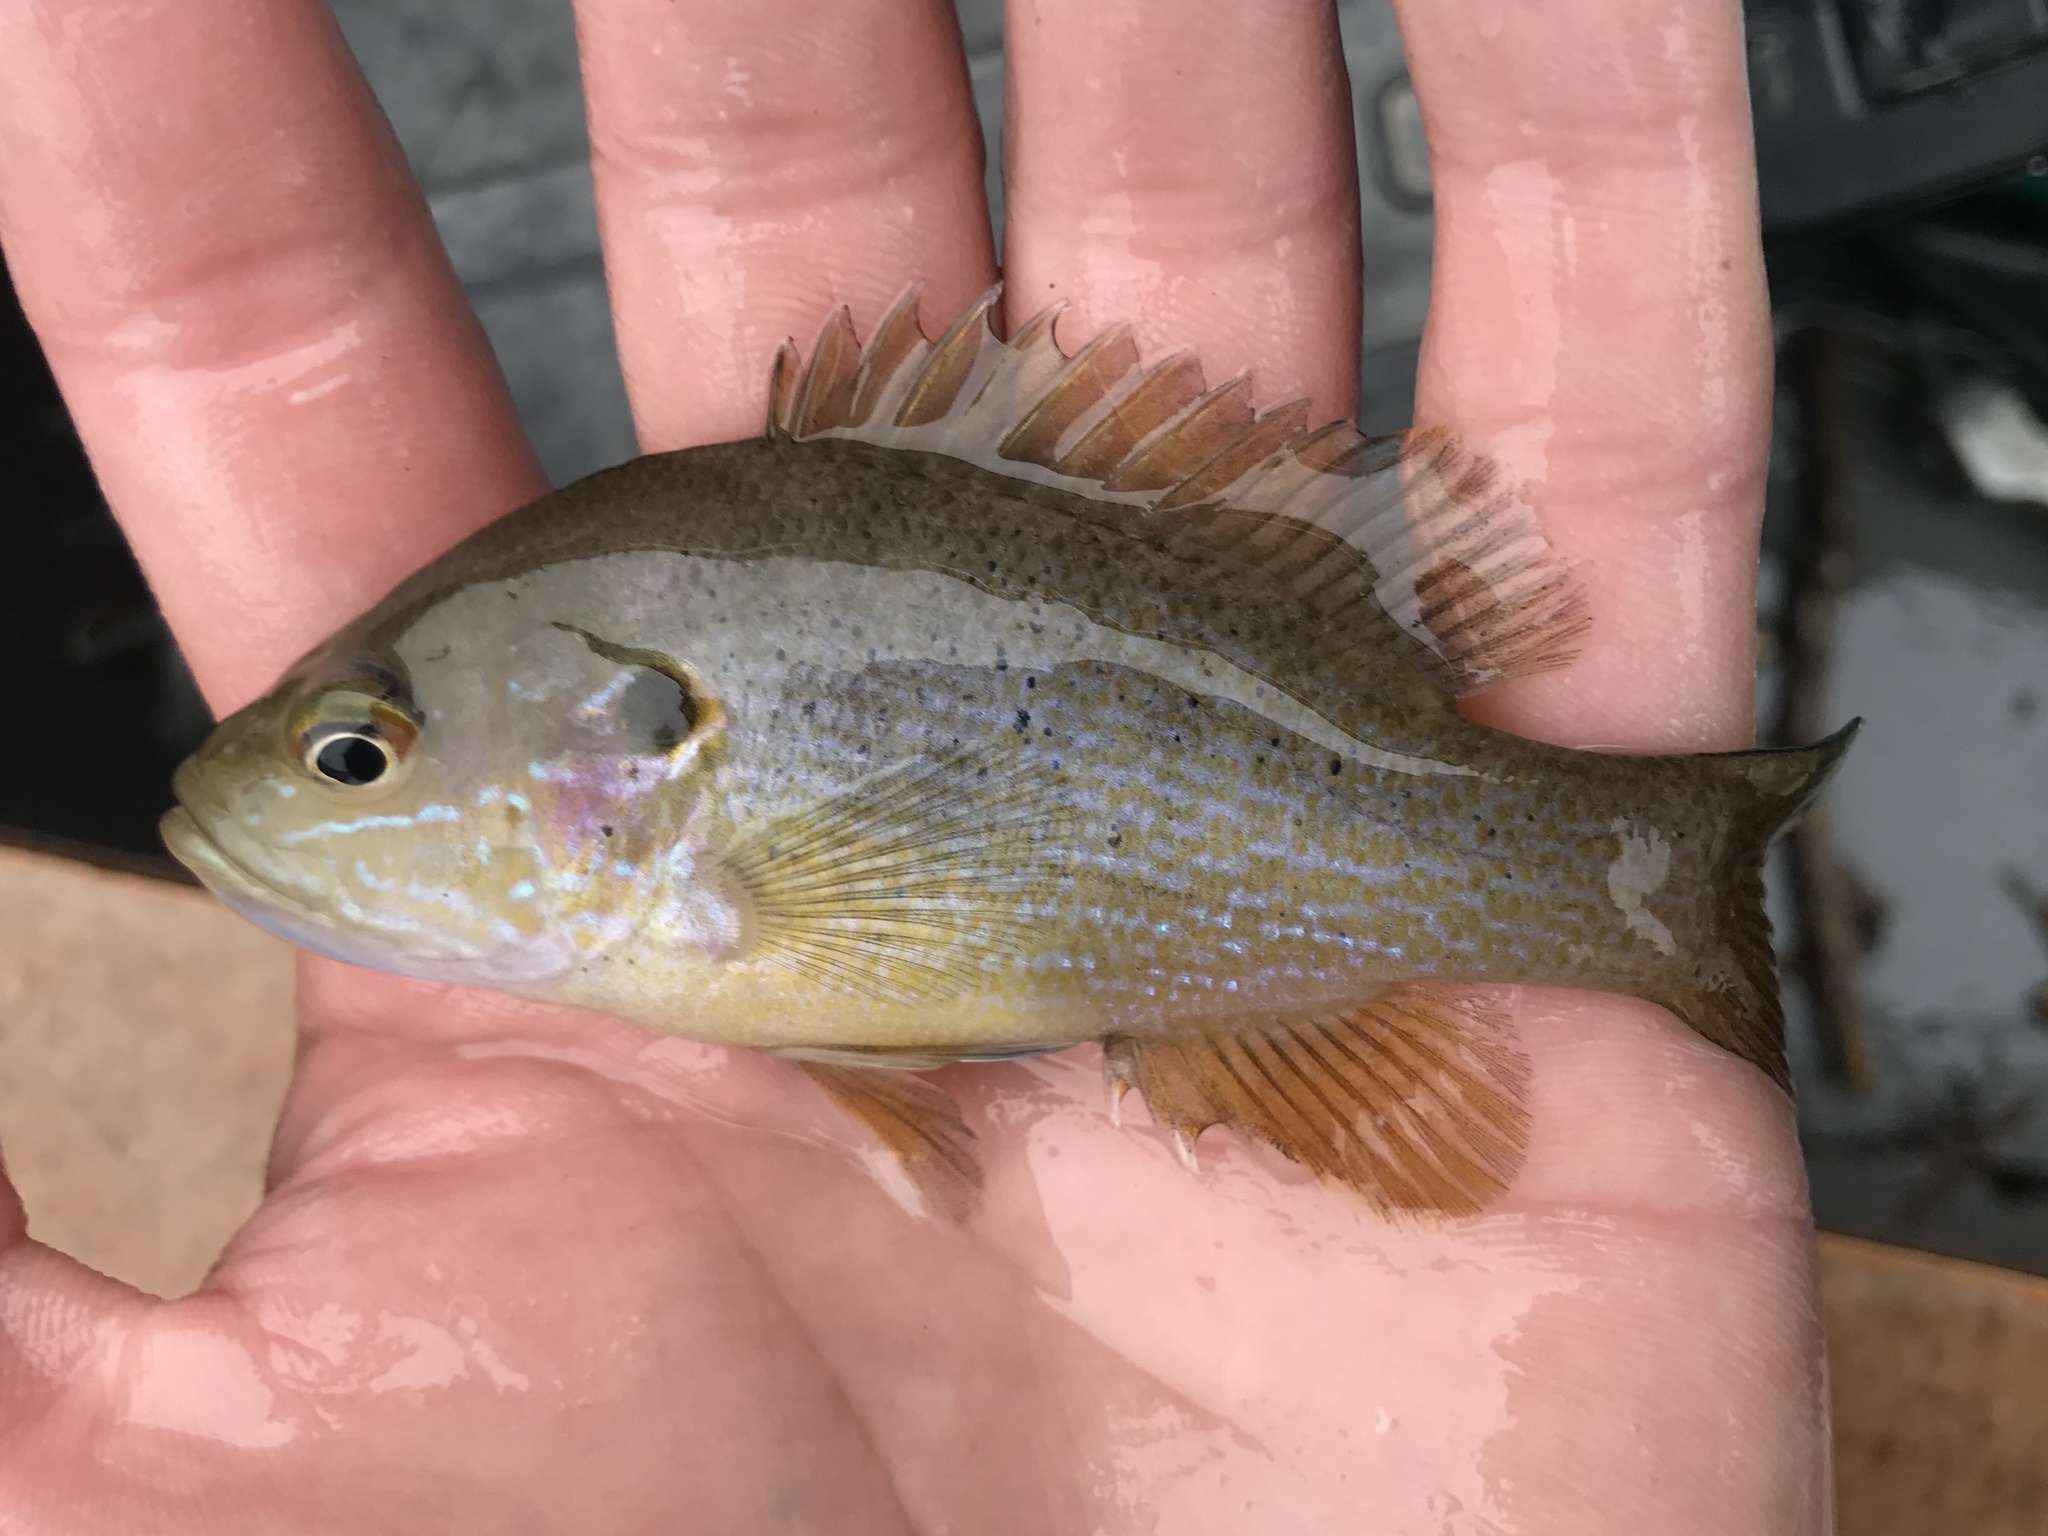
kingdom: Animalia
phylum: Chordata
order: Perciformes
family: Centrarchidae
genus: Lepomis
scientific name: Lepomis cyanellus
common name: Green sunfish
